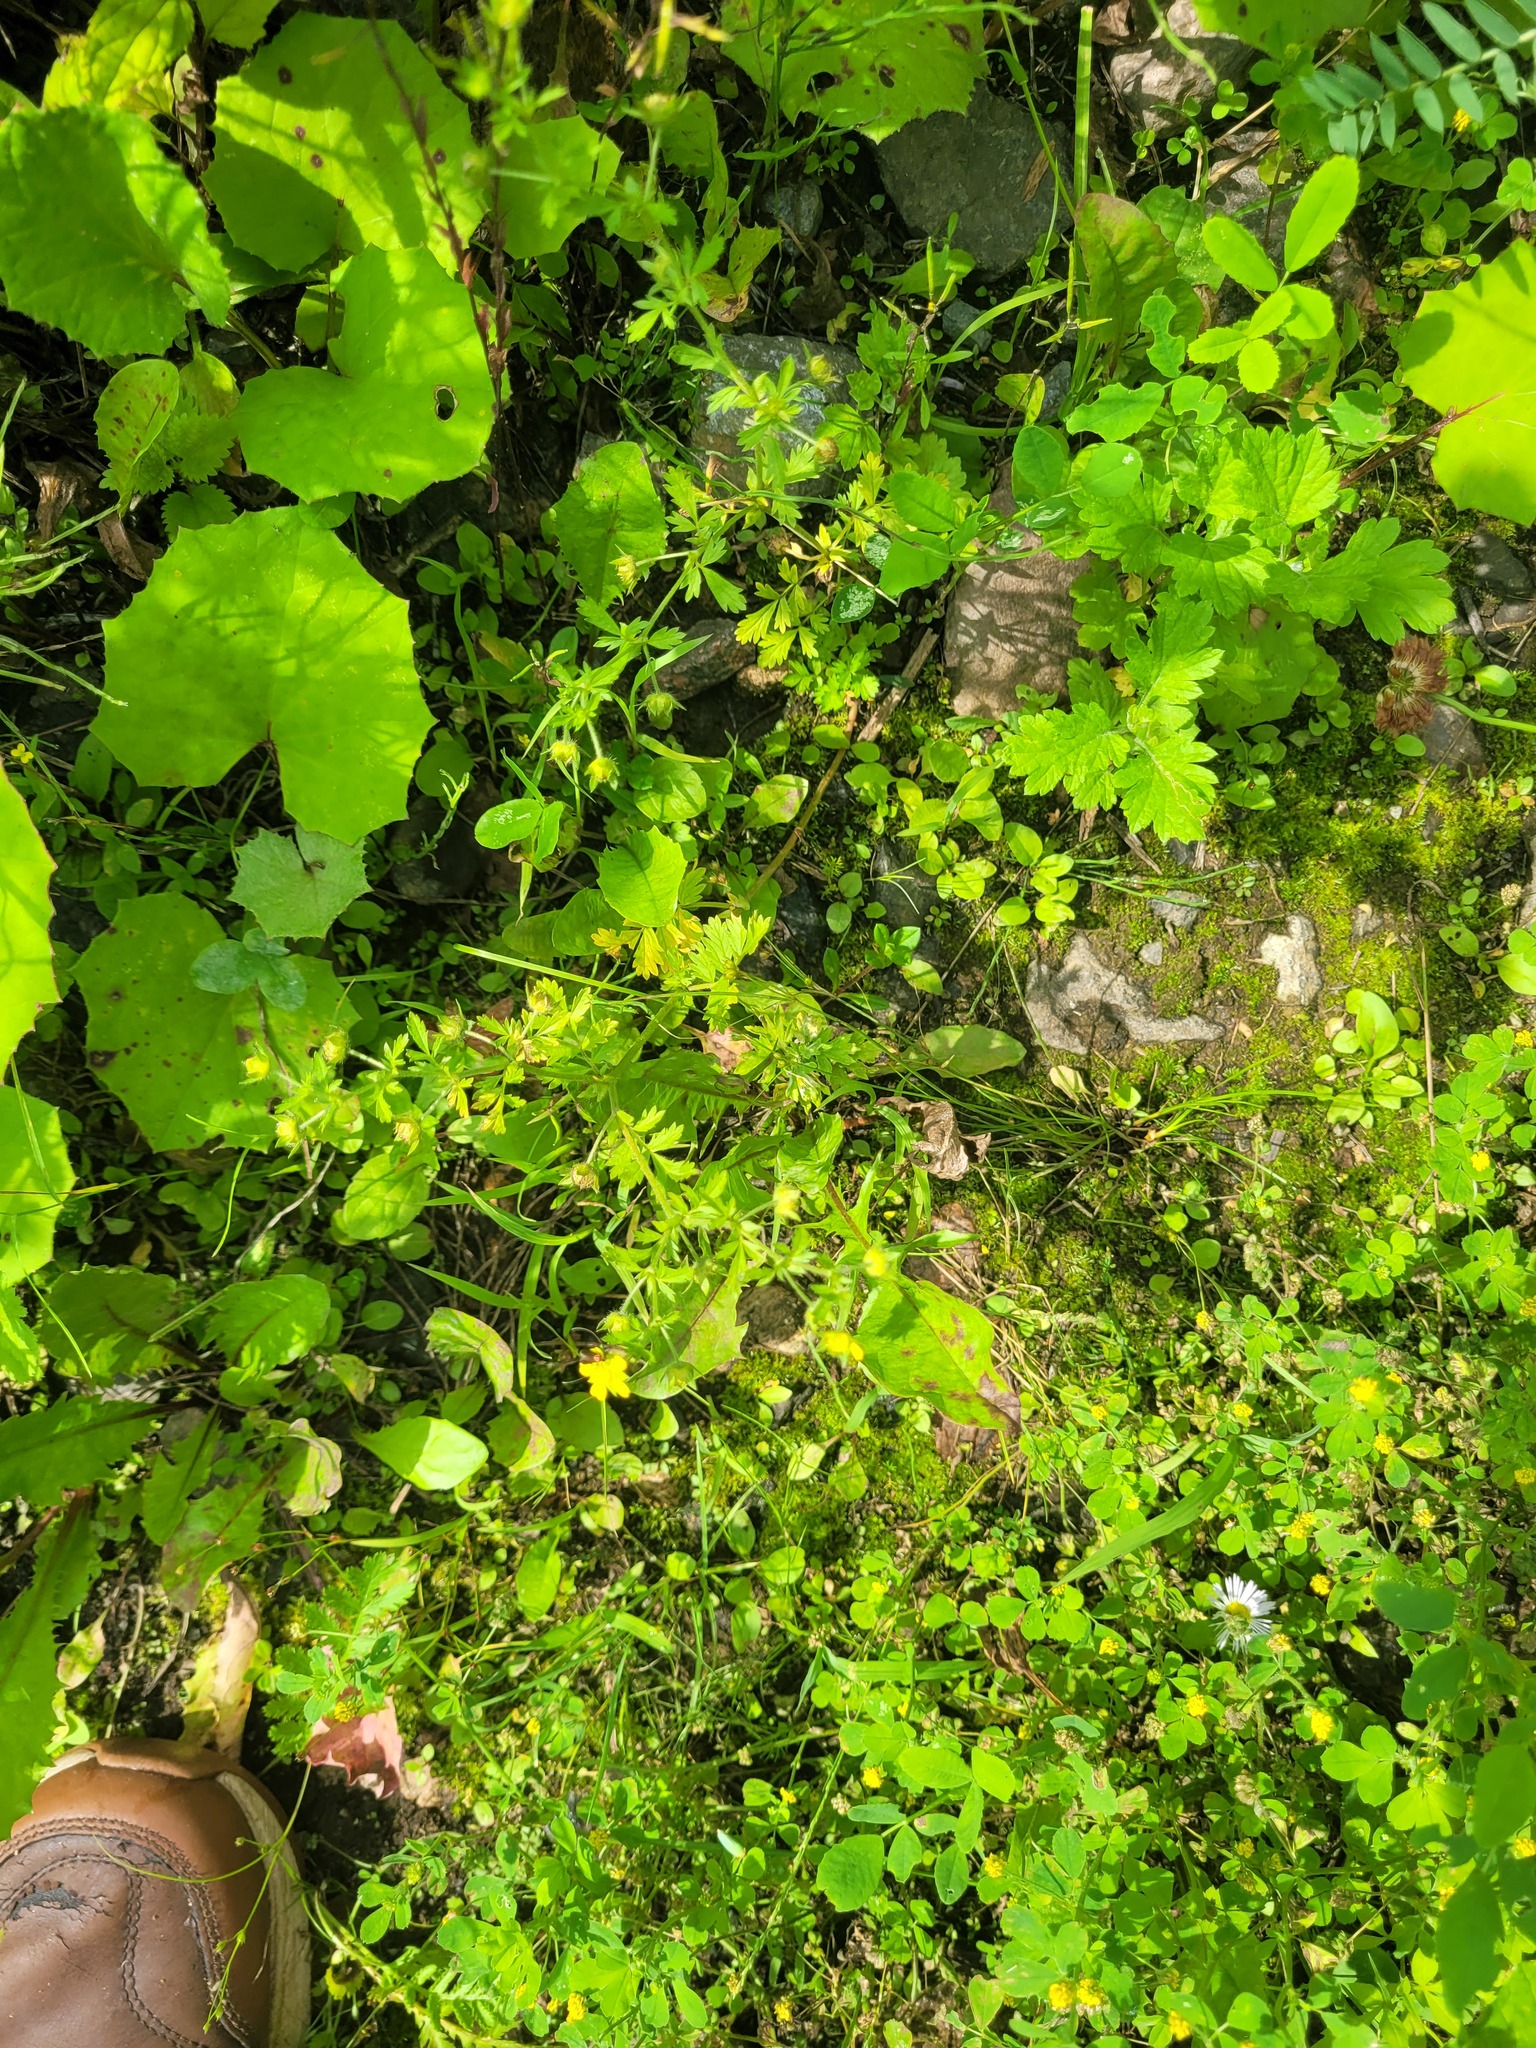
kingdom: Plantae
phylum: Tracheophyta
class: Magnoliopsida
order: Rosales
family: Rosaceae
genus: Potentilla
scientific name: Potentilla supina
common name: Prostrate cinquefoil
